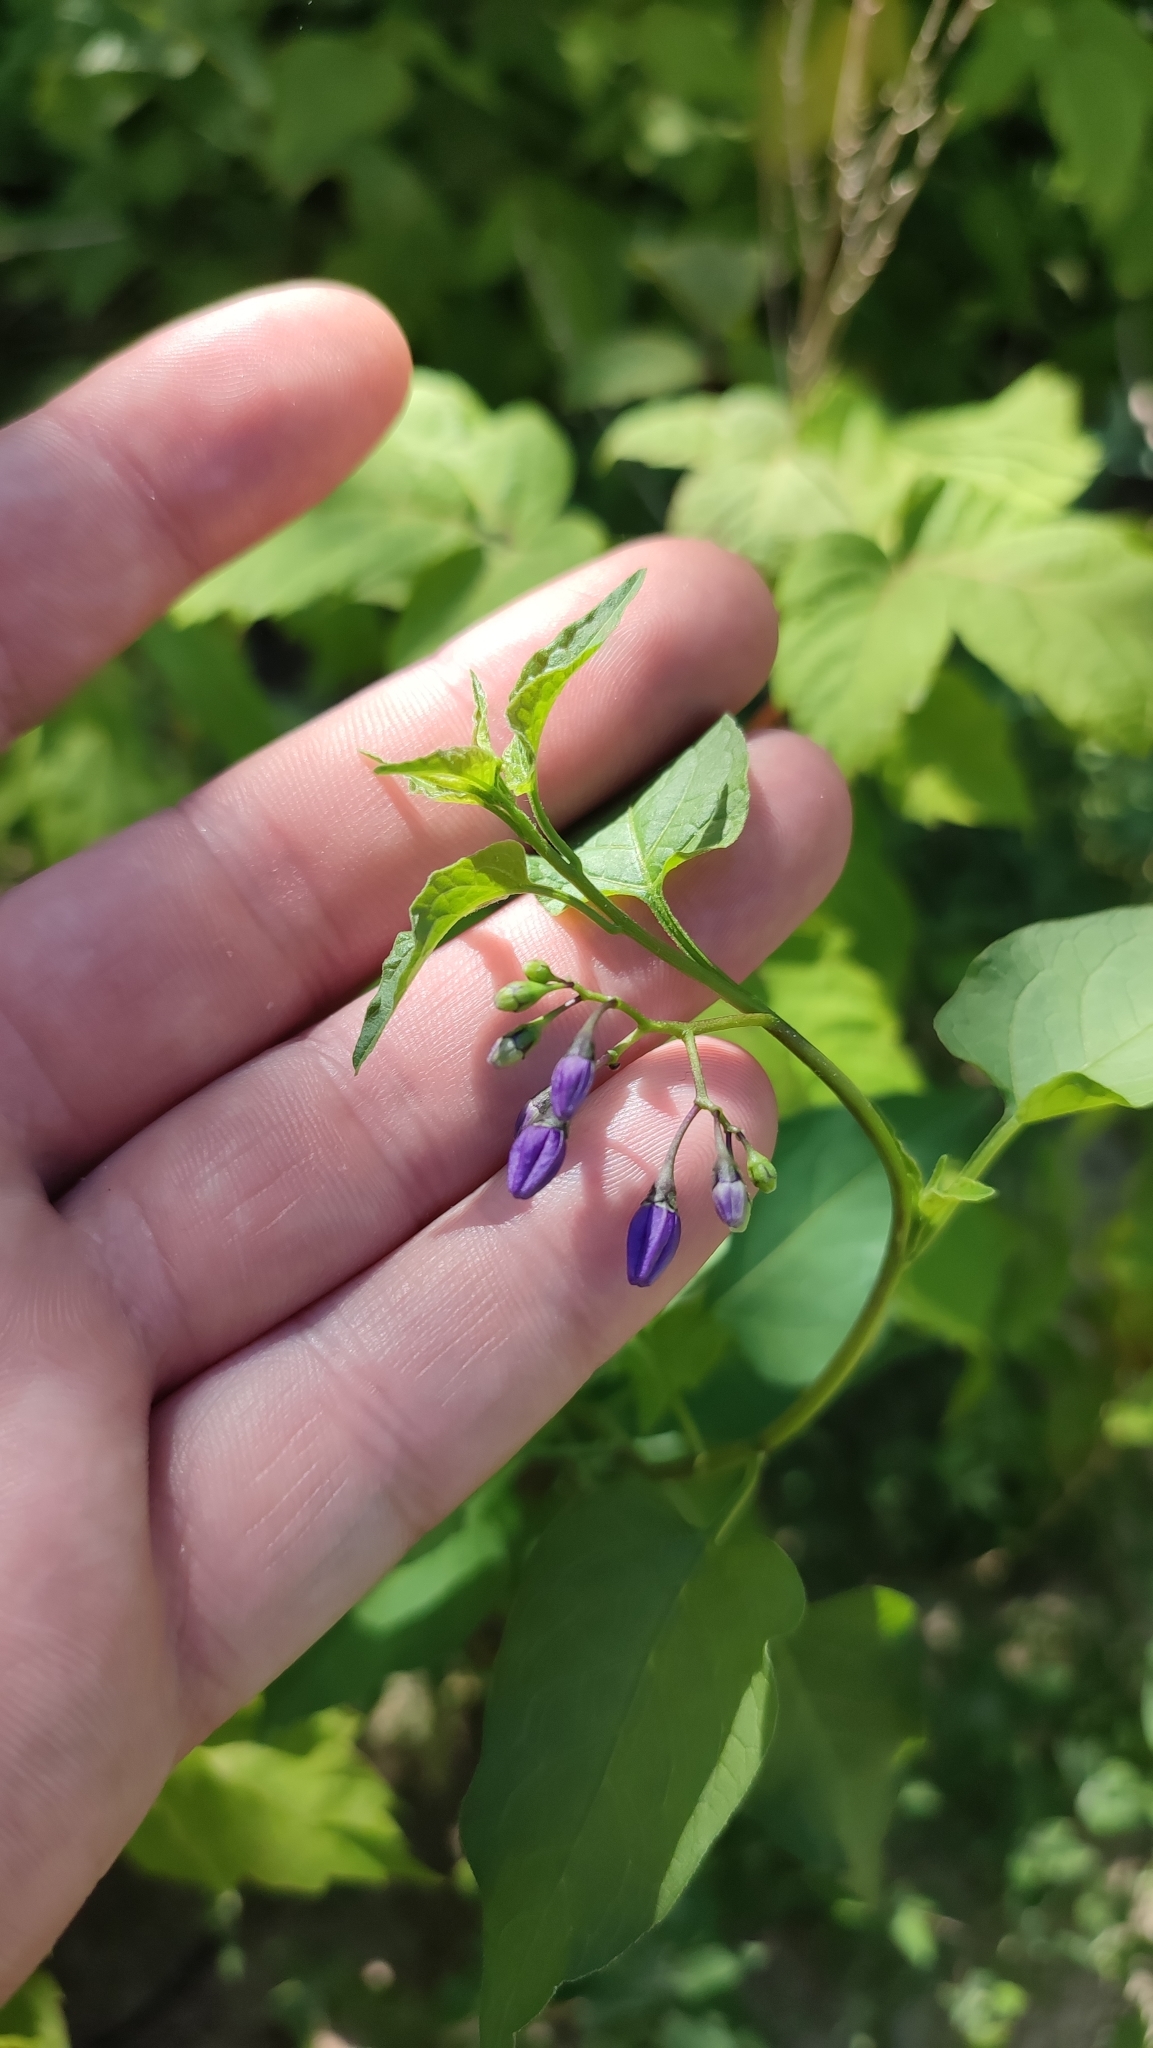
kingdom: Plantae
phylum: Tracheophyta
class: Magnoliopsida
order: Solanales
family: Solanaceae
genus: Solanum
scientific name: Solanum dulcamara
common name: Climbing nightshade
